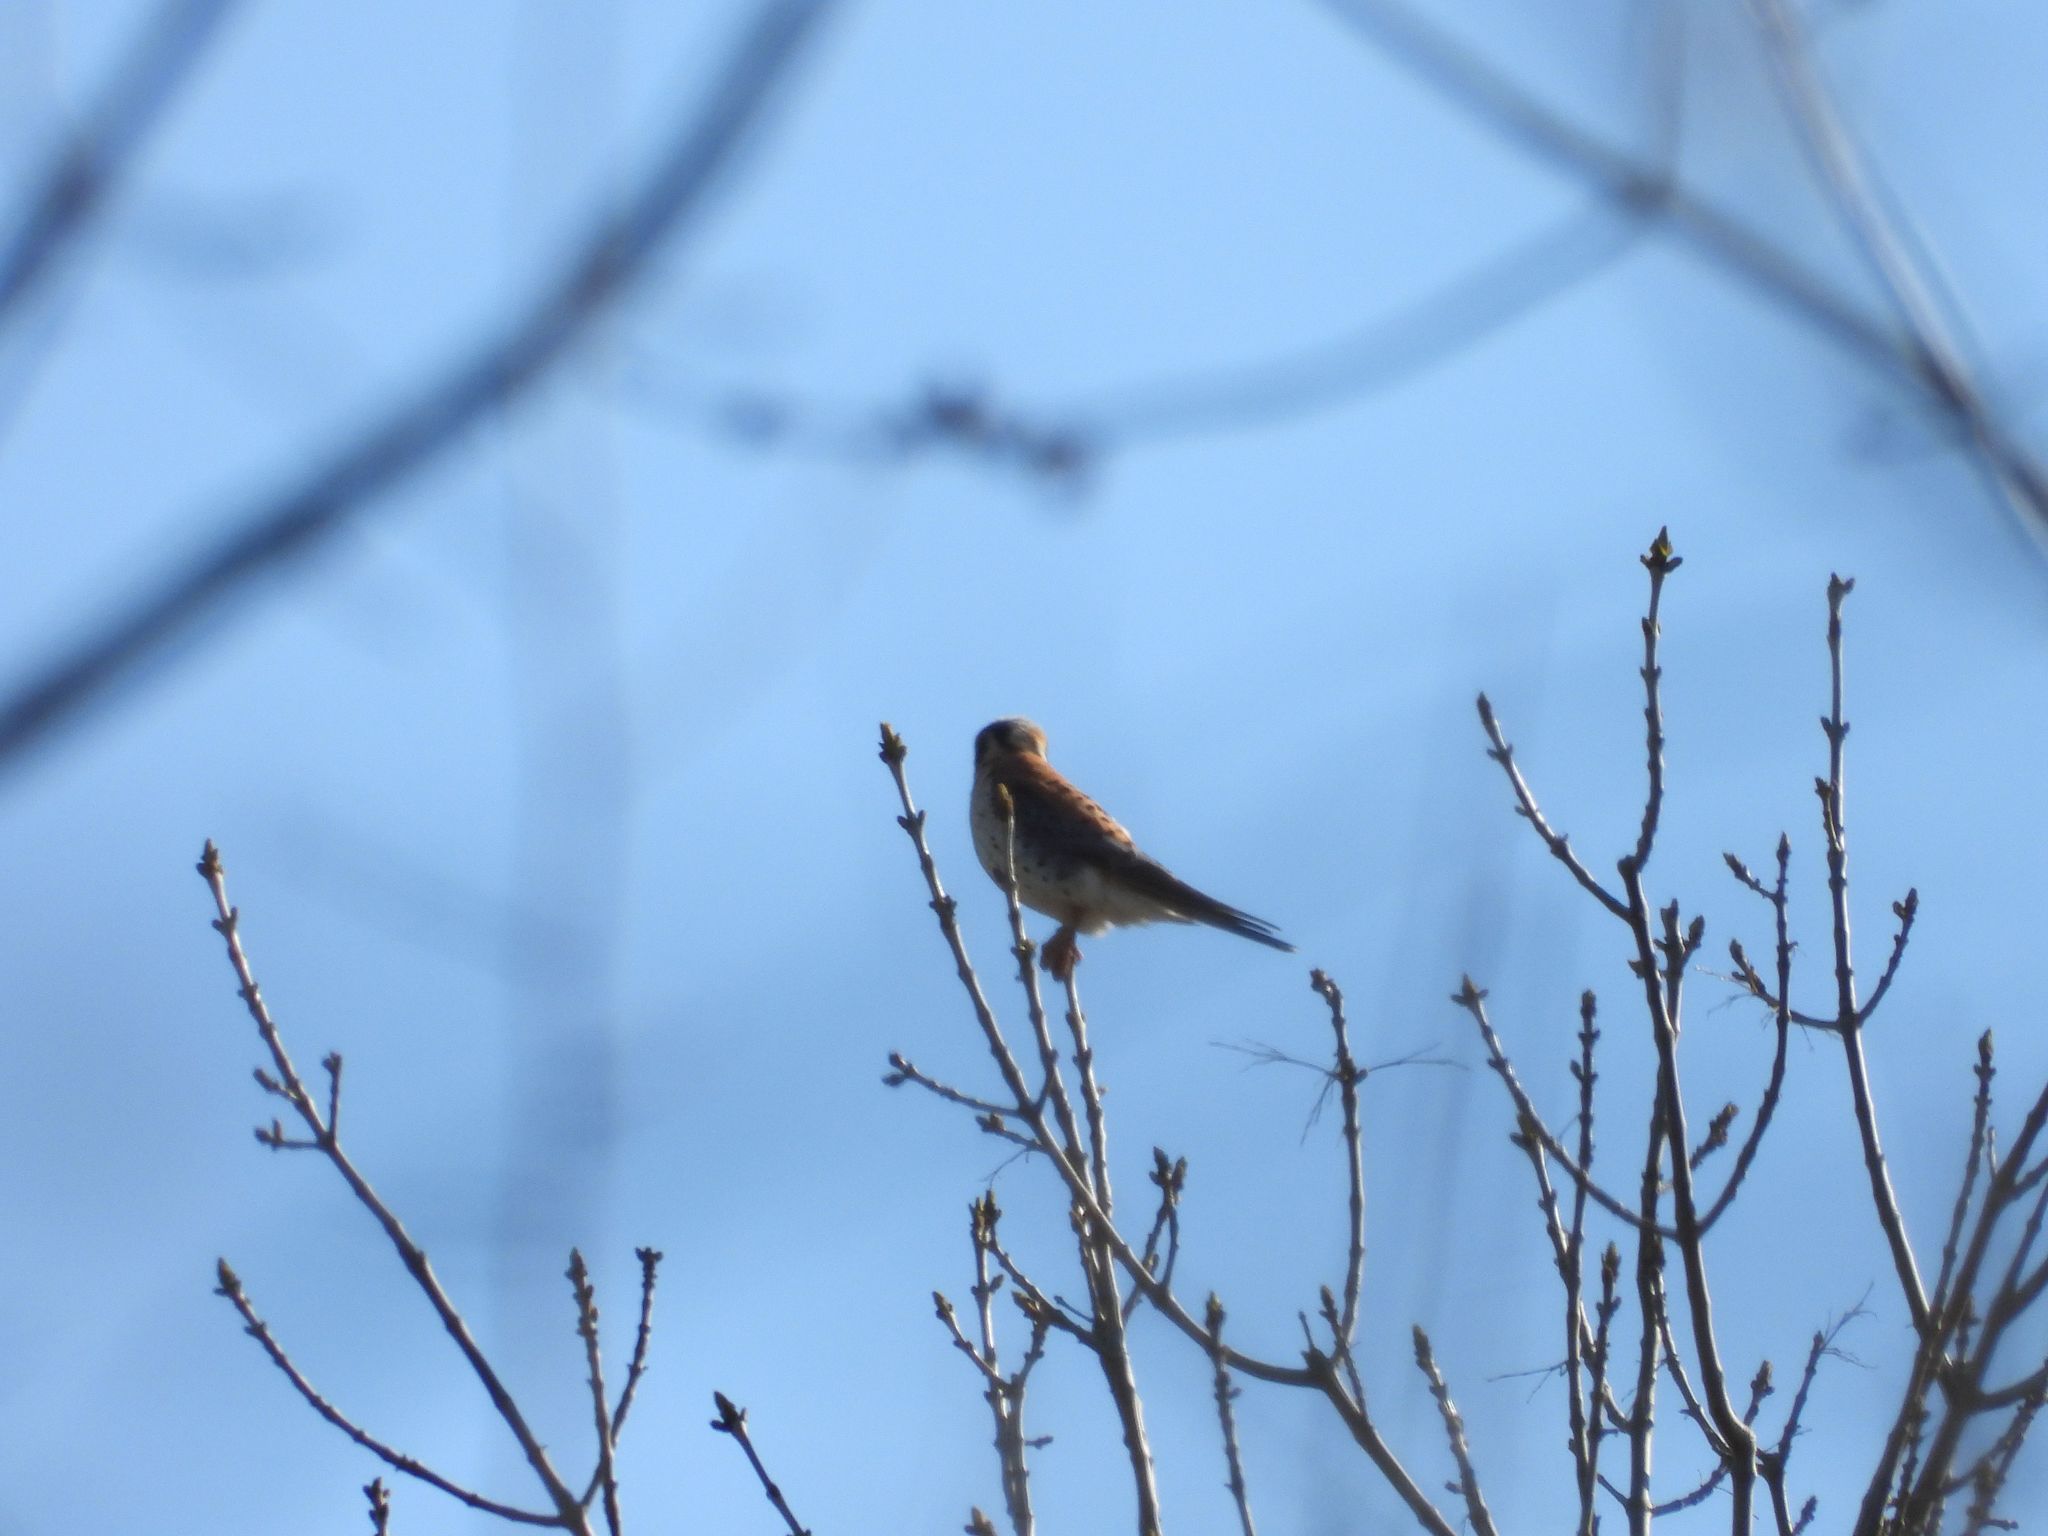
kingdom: Animalia
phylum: Chordata
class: Aves
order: Falconiformes
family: Falconidae
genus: Falco
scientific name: Falco sparverius
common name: American kestrel
